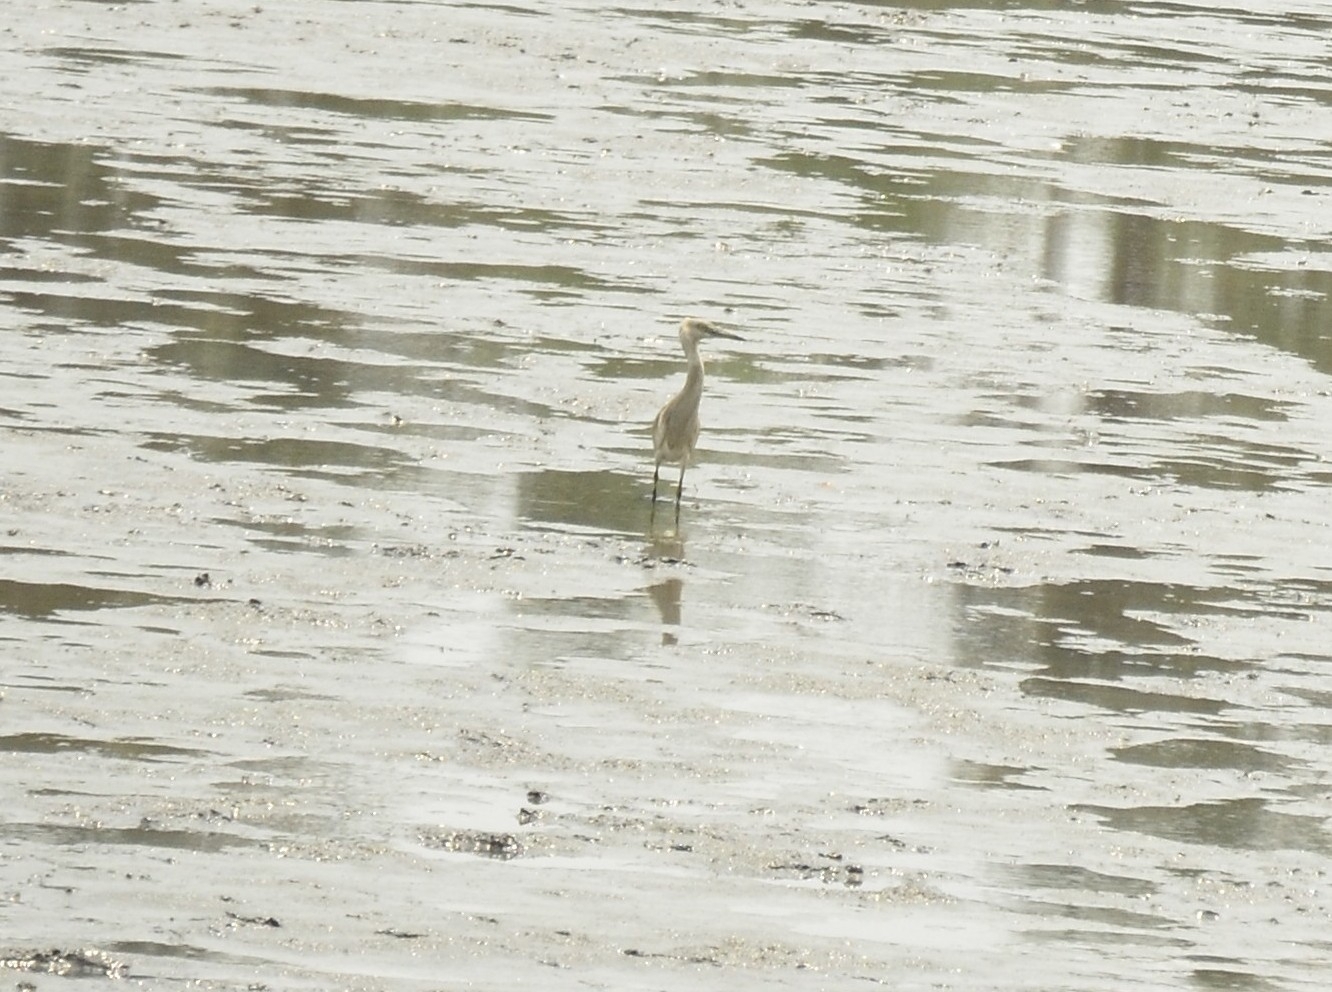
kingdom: Animalia
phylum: Chordata
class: Aves
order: Pelecaniformes
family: Ardeidae
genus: Ardeola
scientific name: Ardeola grayii
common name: Indian pond heron
